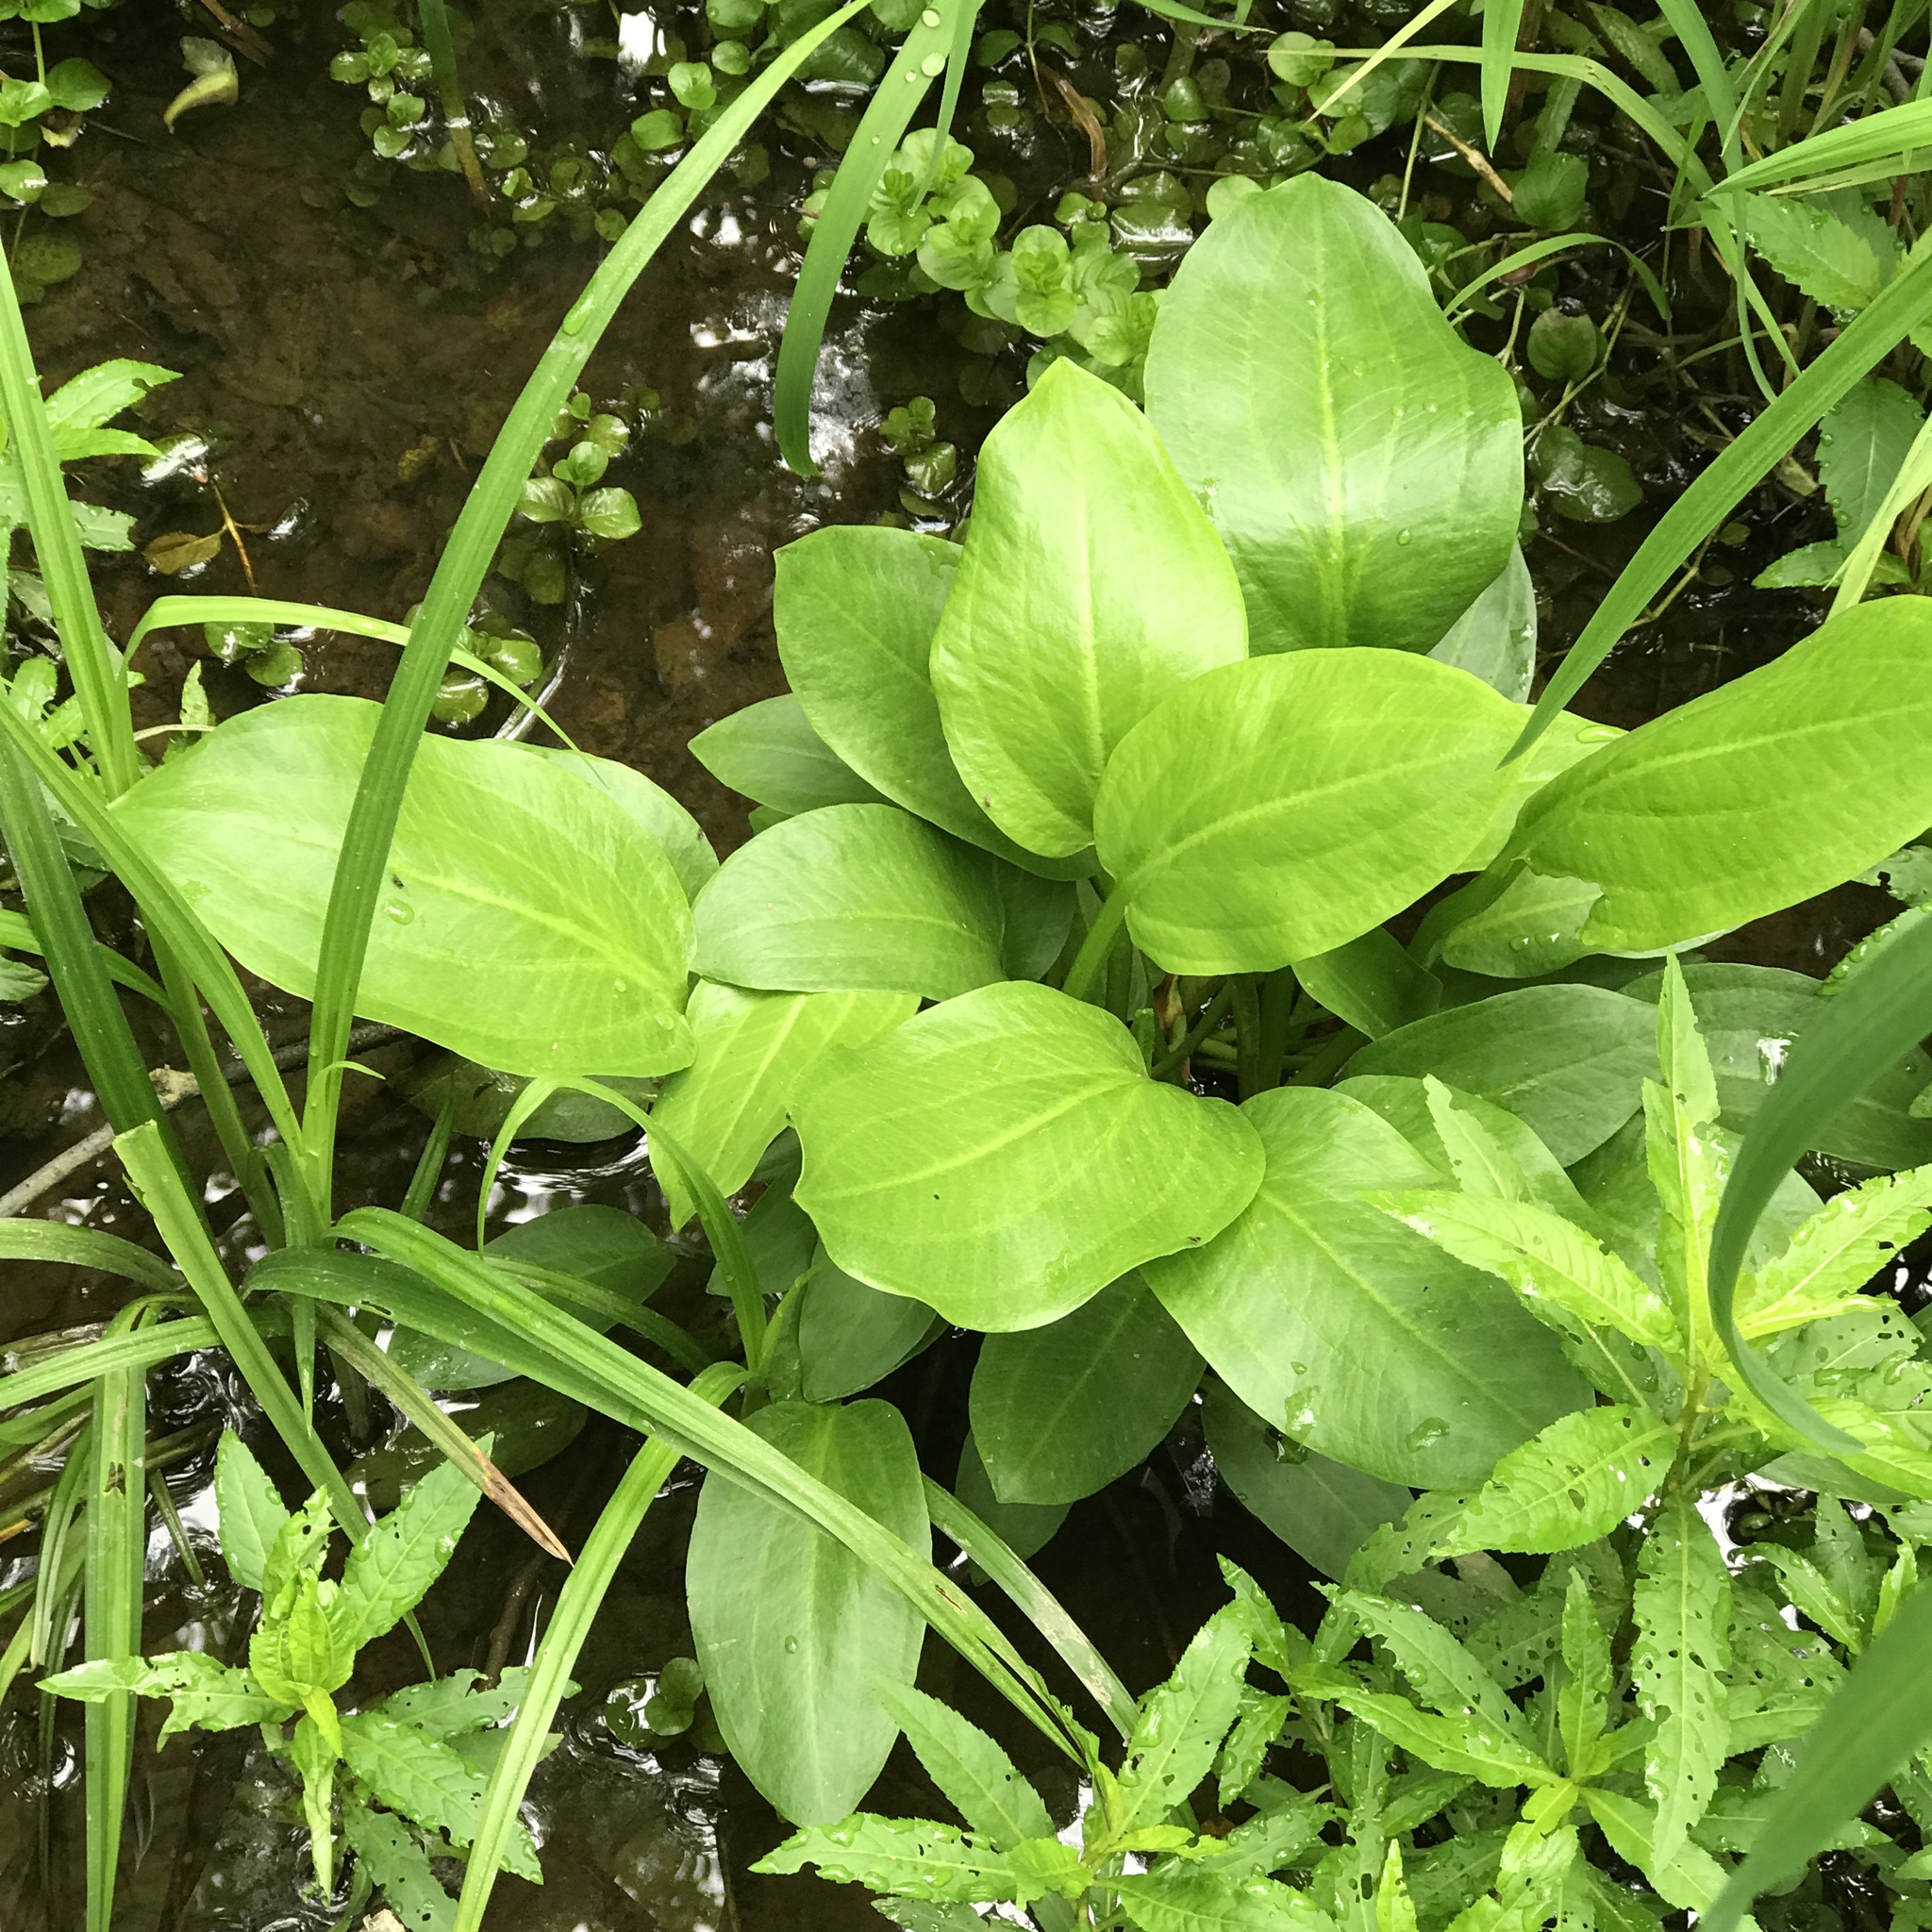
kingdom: Plantae
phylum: Tracheophyta
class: Magnoliopsida
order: Saxifragales
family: Penthoraceae
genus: Penthorum
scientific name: Penthorum sedoides
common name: Ditch stonecrop
